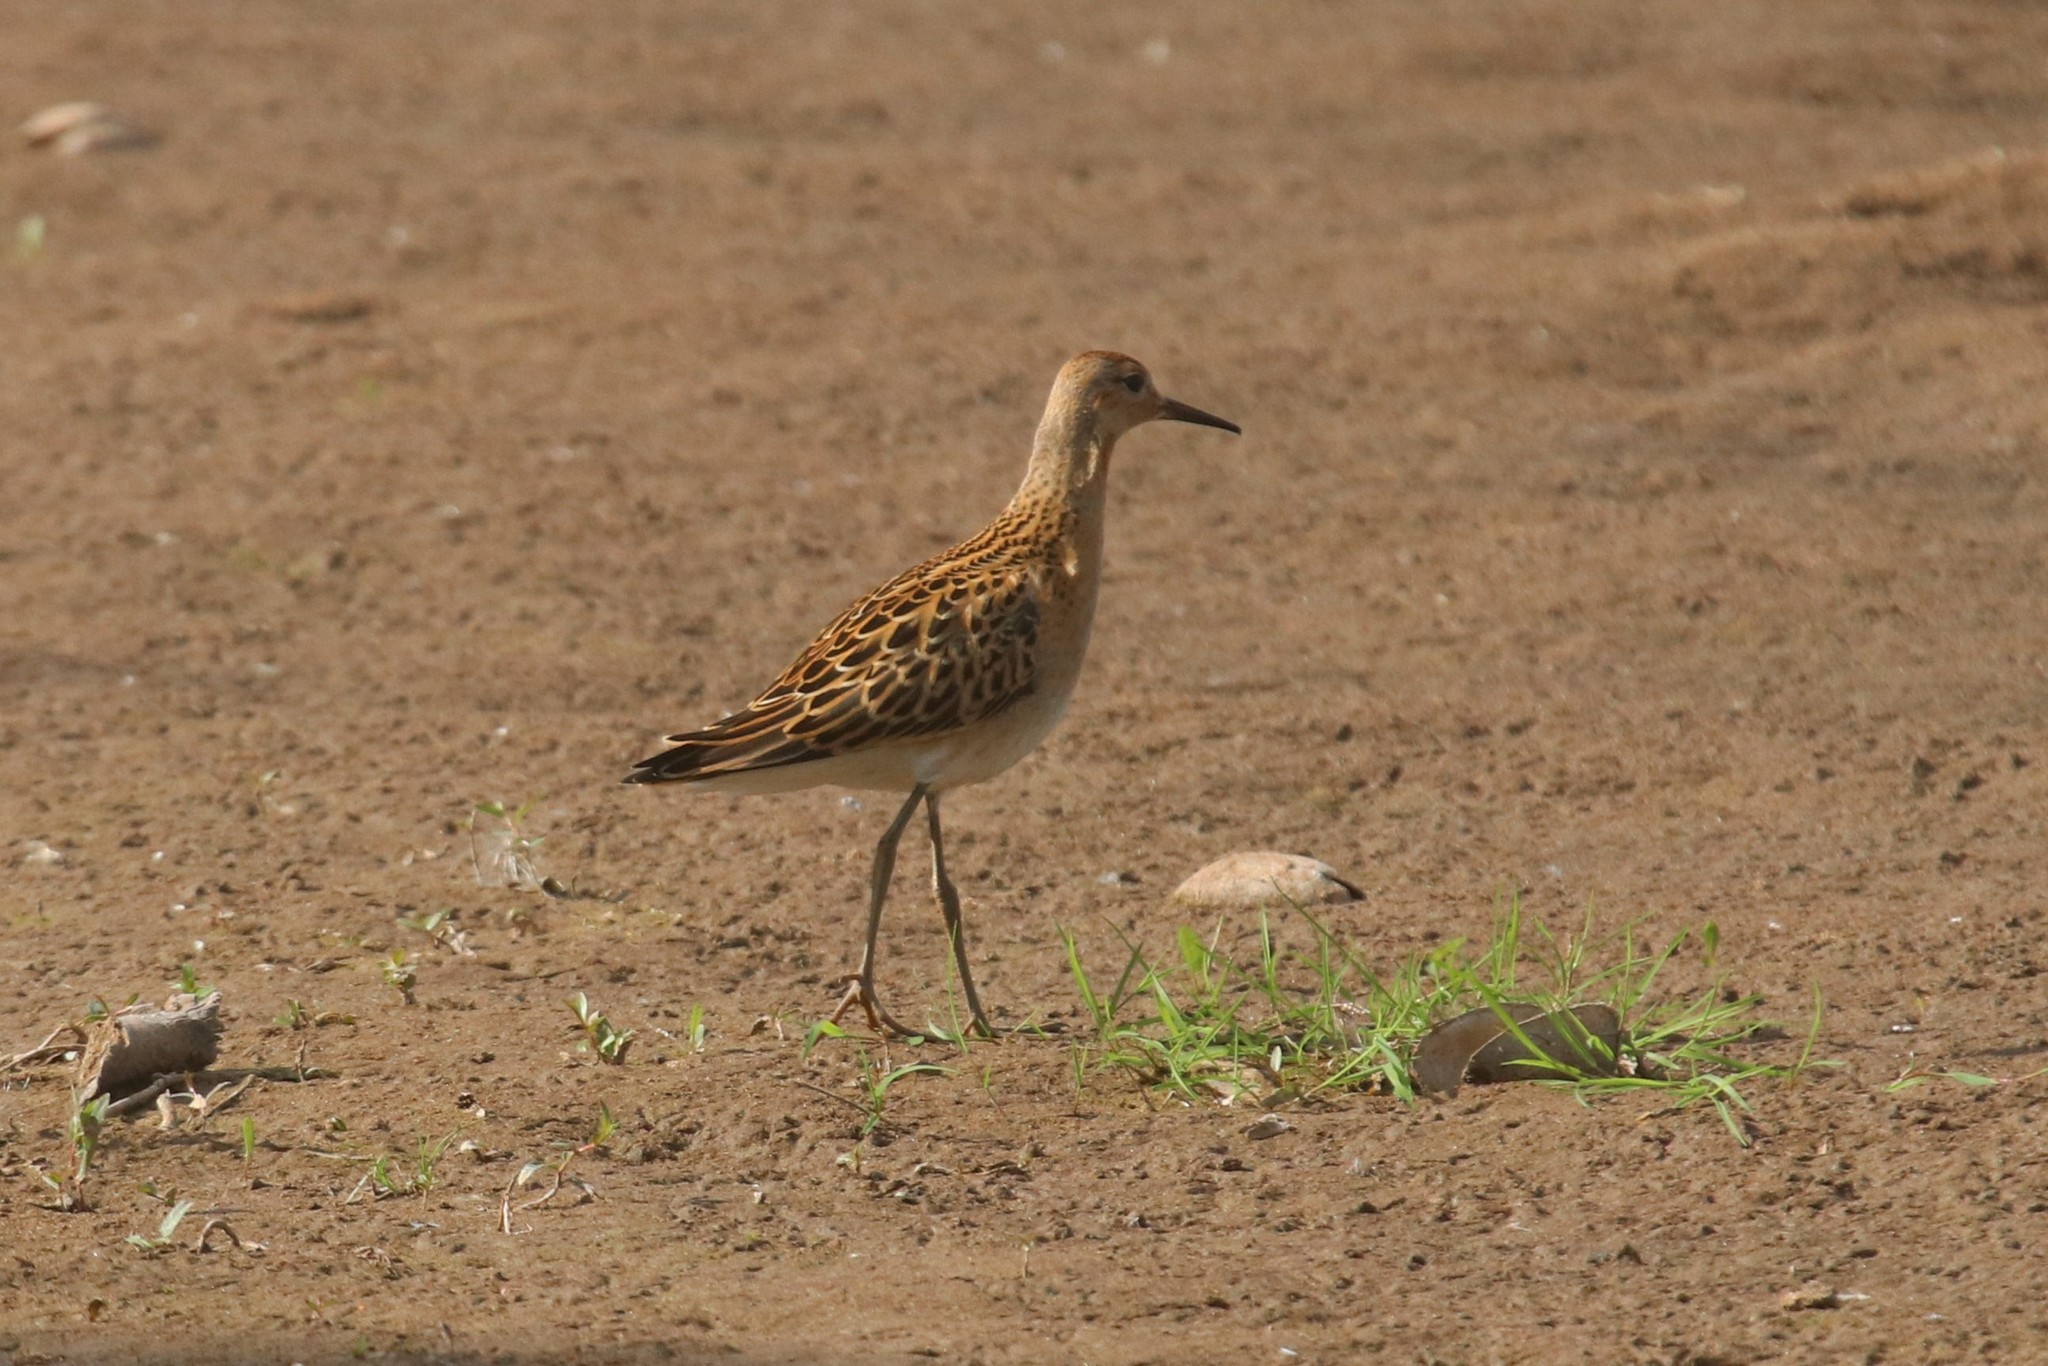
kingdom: Animalia
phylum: Chordata
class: Aves
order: Charadriiformes
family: Scolopacidae
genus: Calidris
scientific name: Calidris pugnax
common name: Ruff
